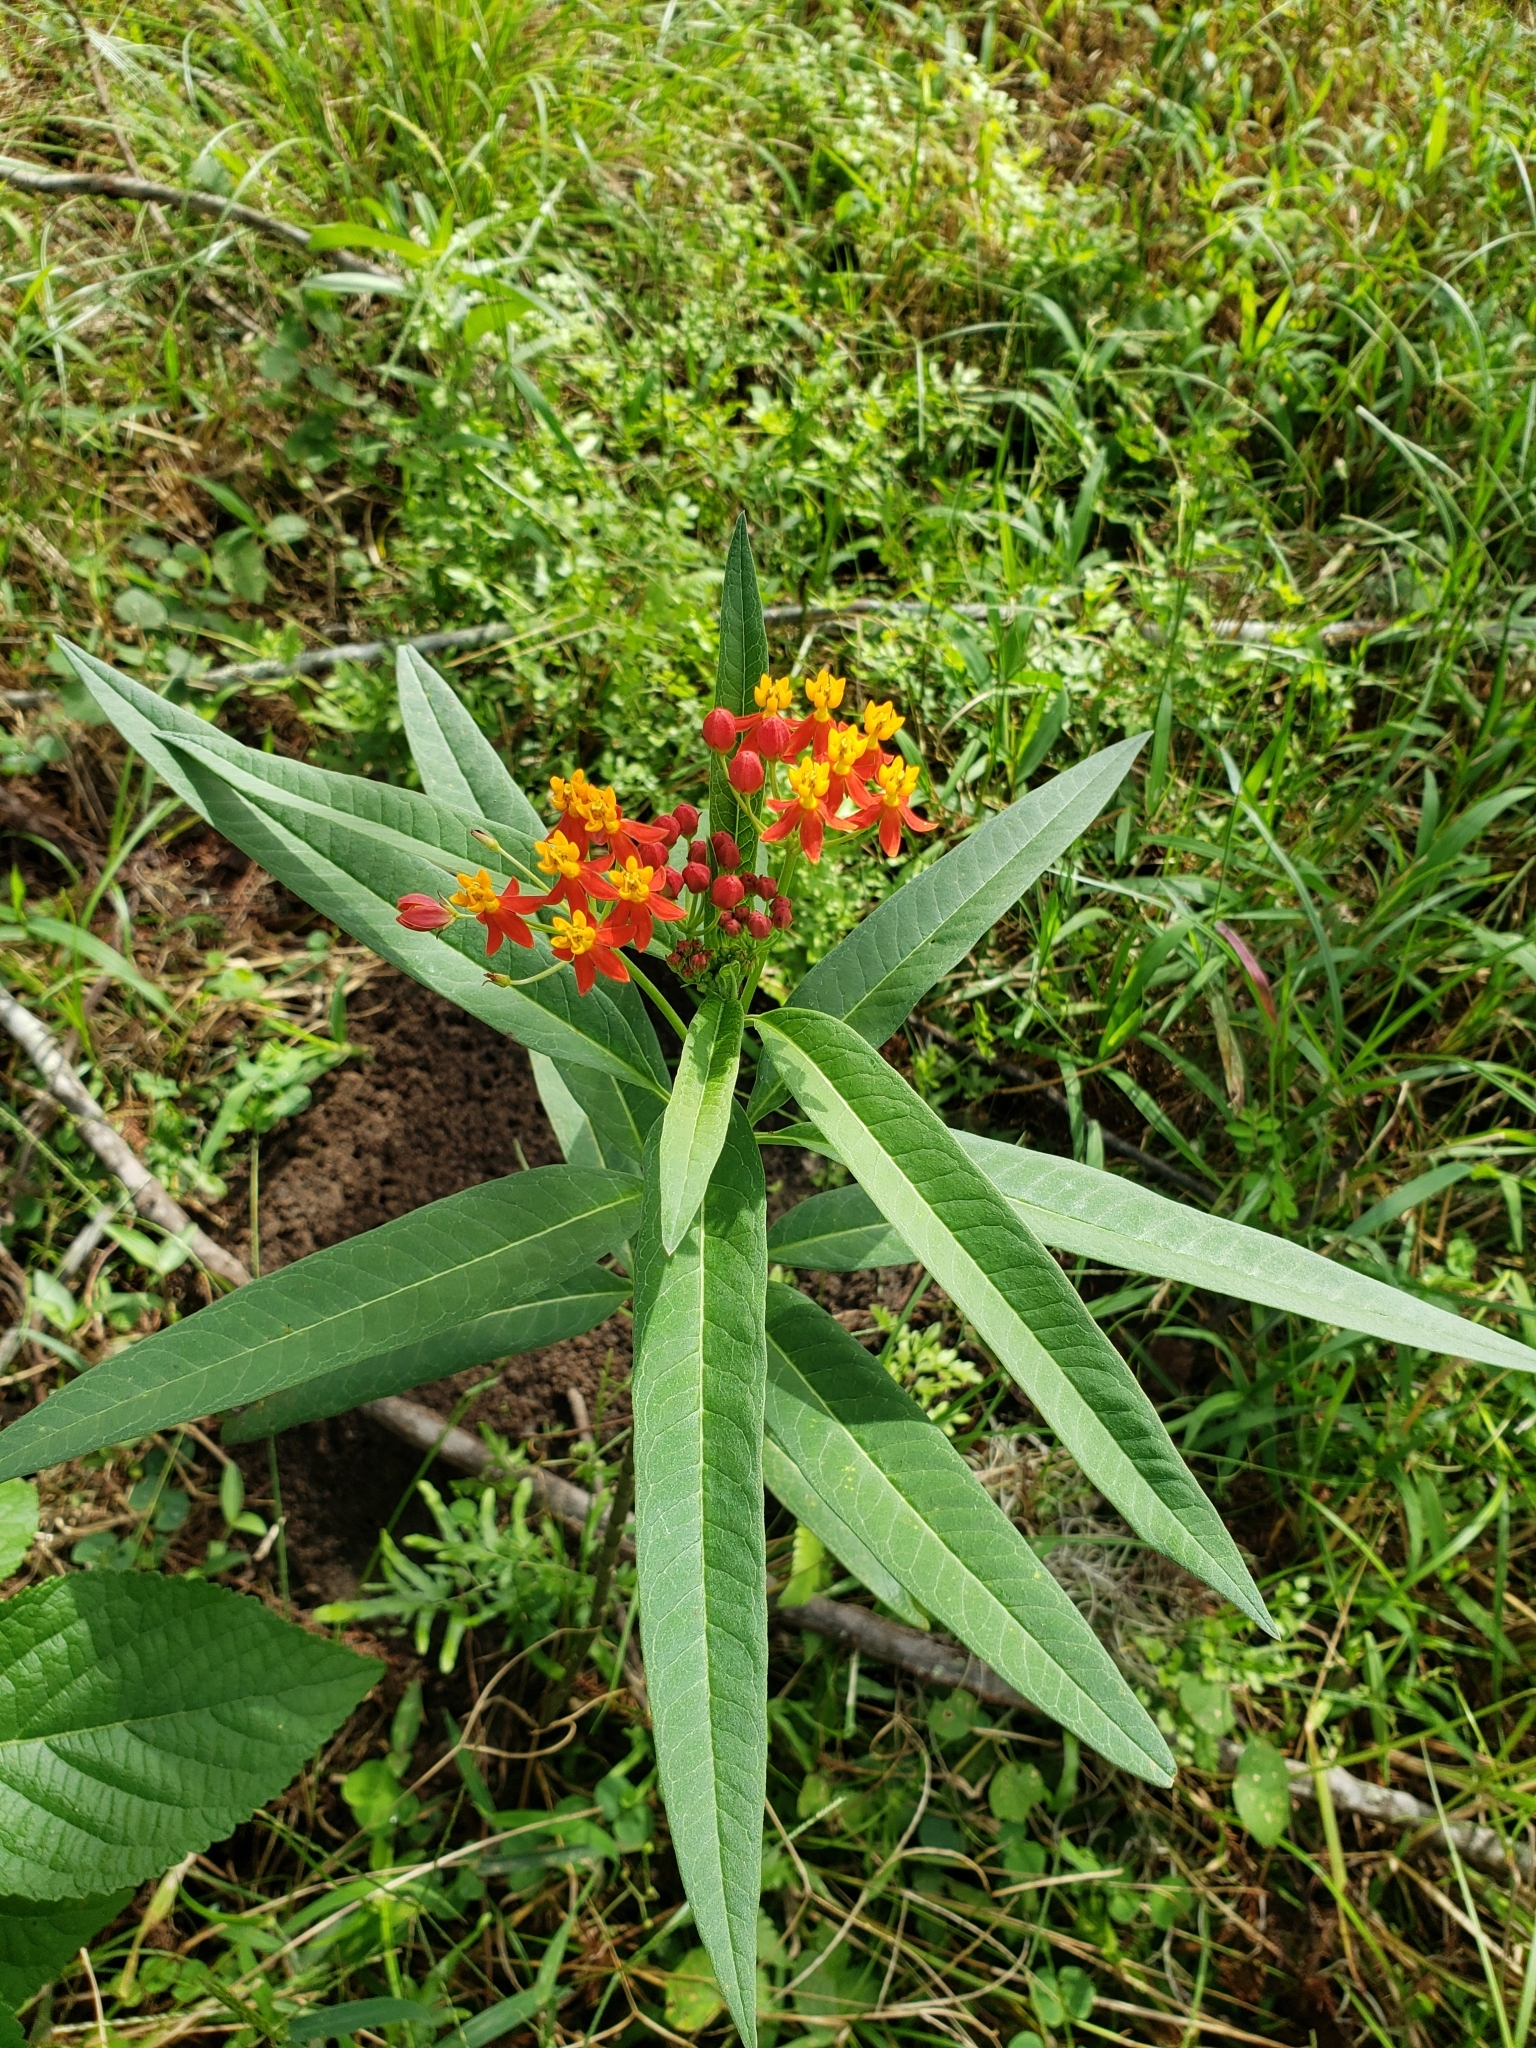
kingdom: Plantae
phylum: Tracheophyta
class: Magnoliopsida
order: Gentianales
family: Apocynaceae
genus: Asclepias
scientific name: Asclepias curassavica
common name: Bloodflower
